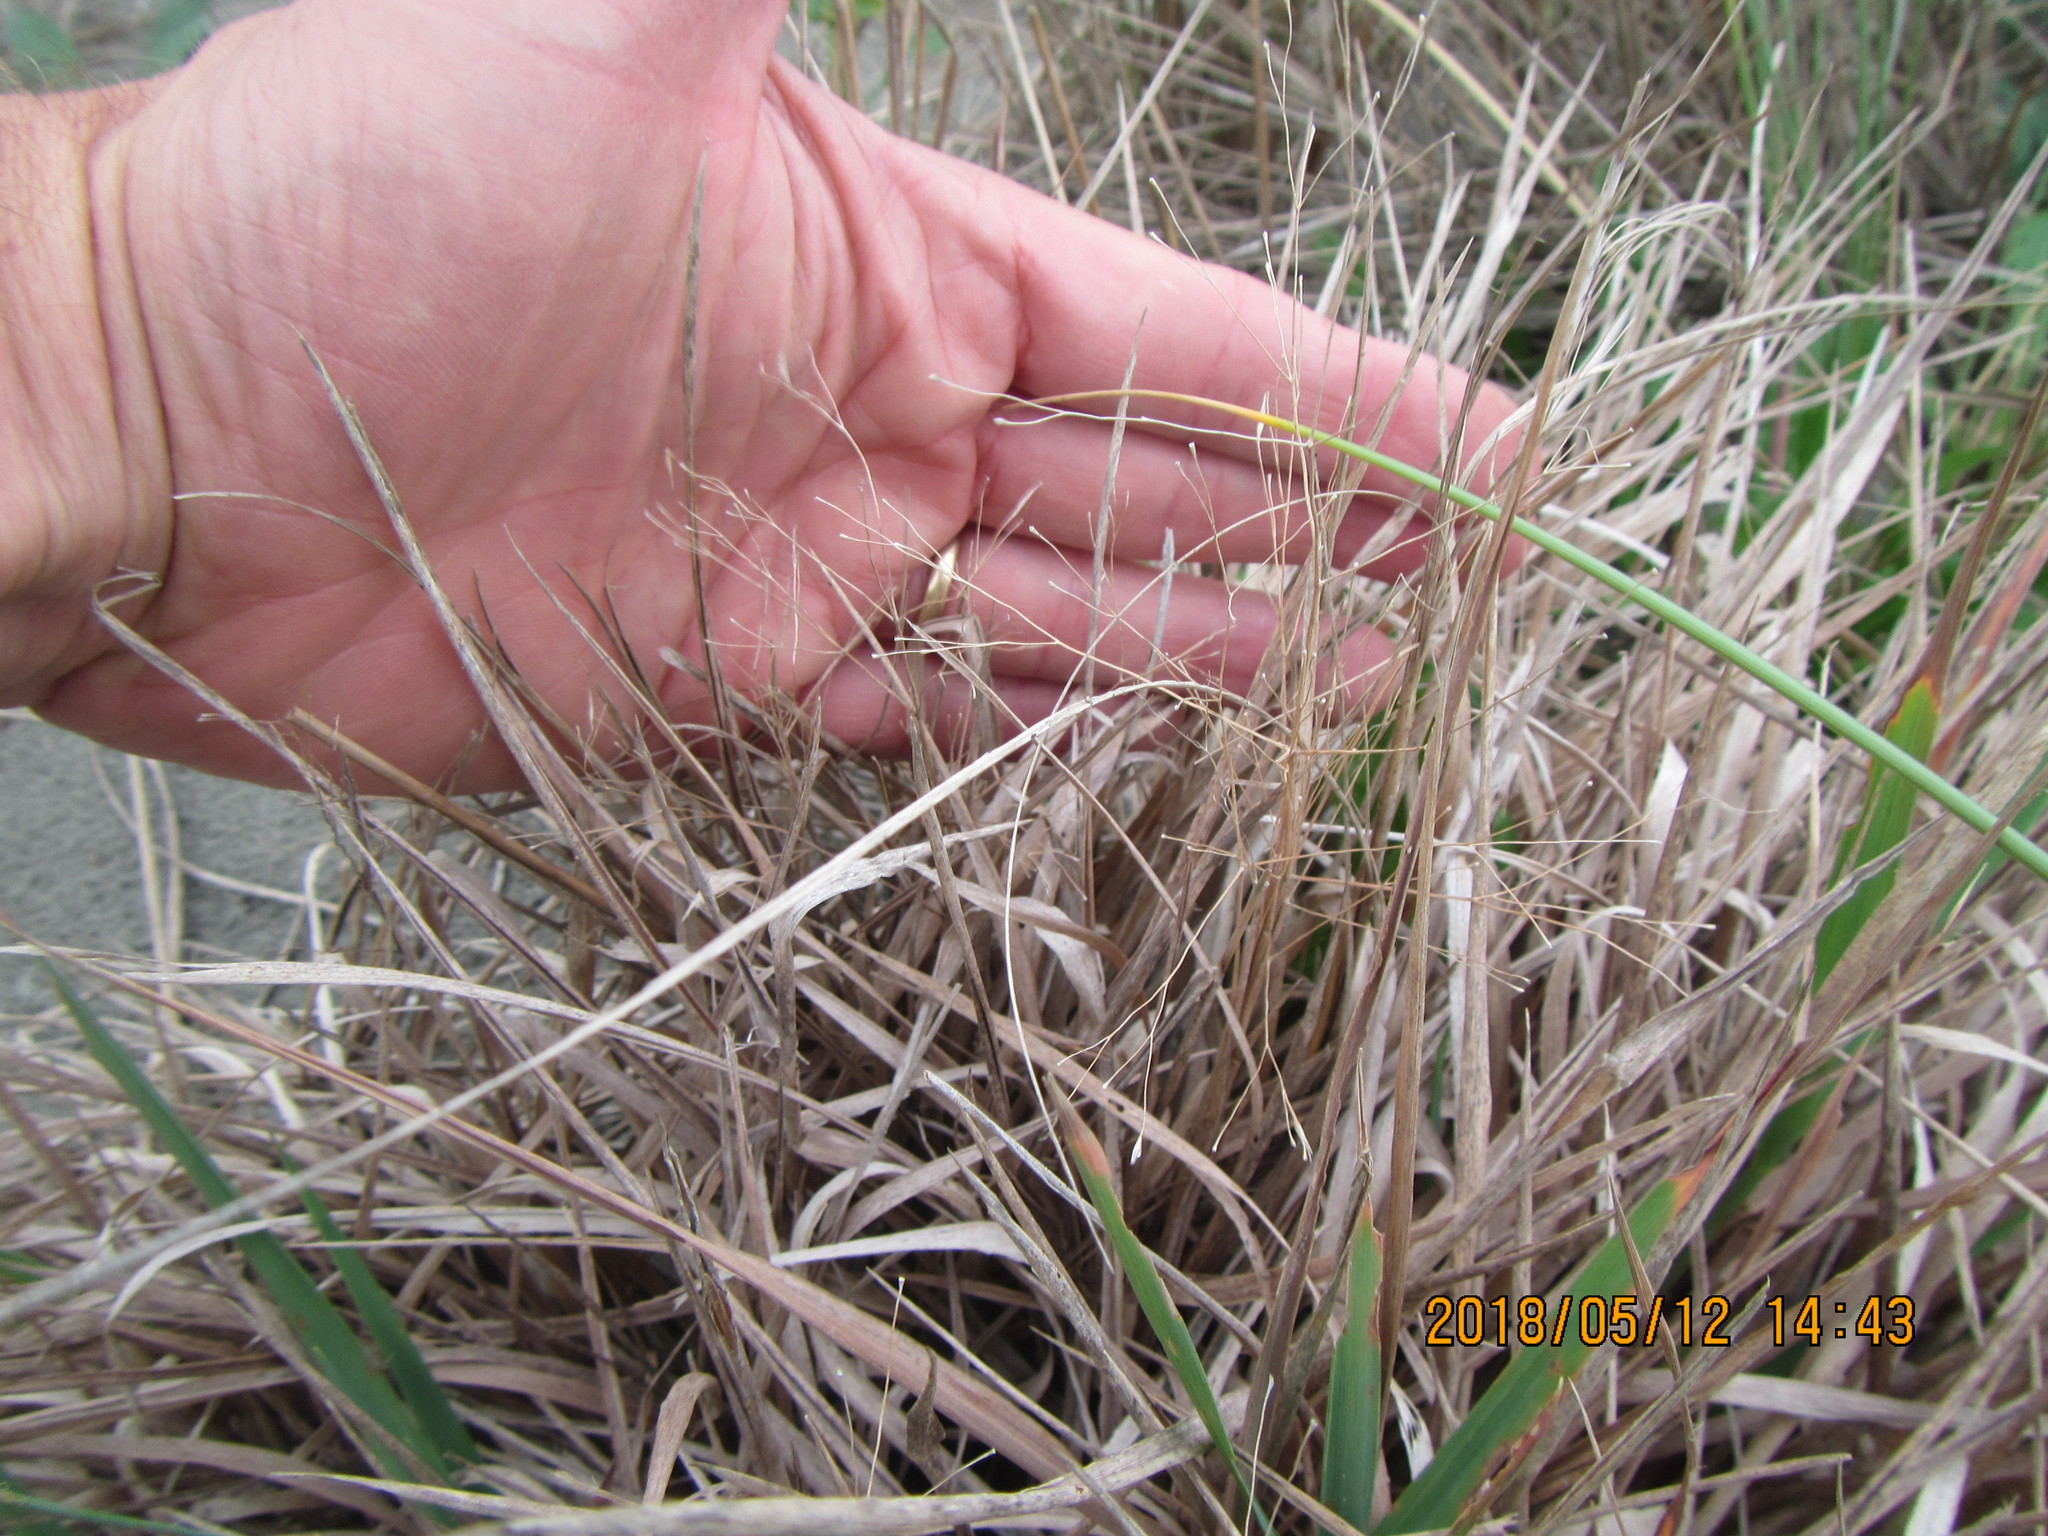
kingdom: Plantae
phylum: Tracheophyta
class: Liliopsida
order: Poales
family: Poaceae
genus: Lachnagrostis
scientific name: Lachnagrostis billardierei
